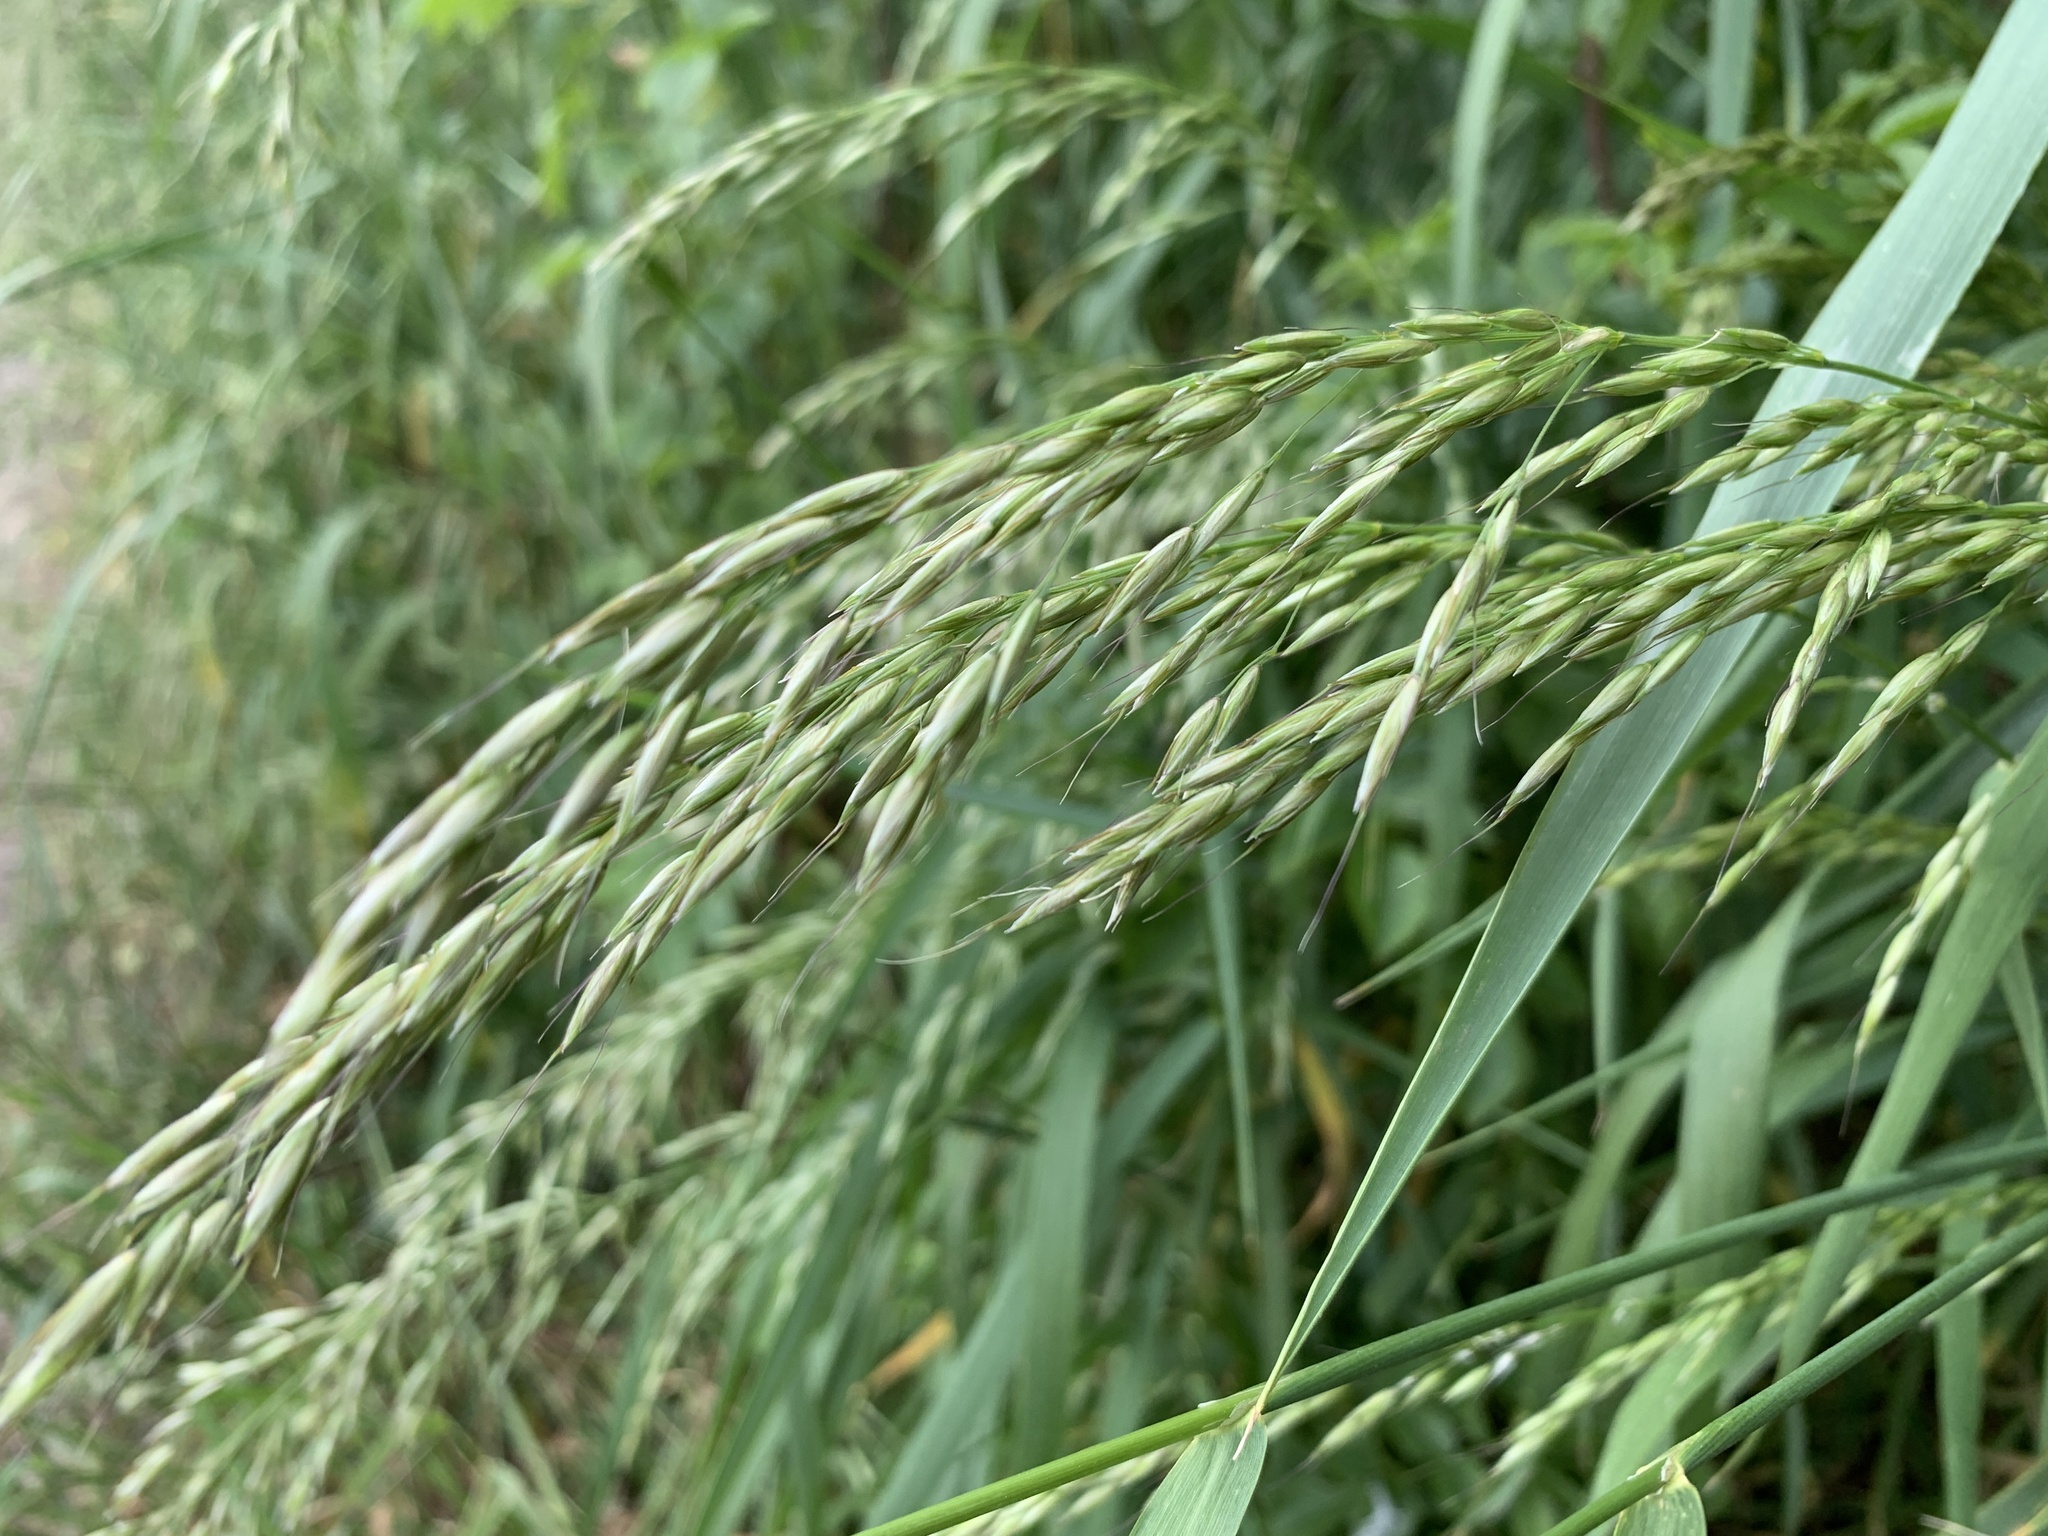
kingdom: Plantae
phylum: Tracheophyta
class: Liliopsida
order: Poales
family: Poaceae
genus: Arrhenatherum
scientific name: Arrhenatherum elatius
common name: Tall oatgrass
